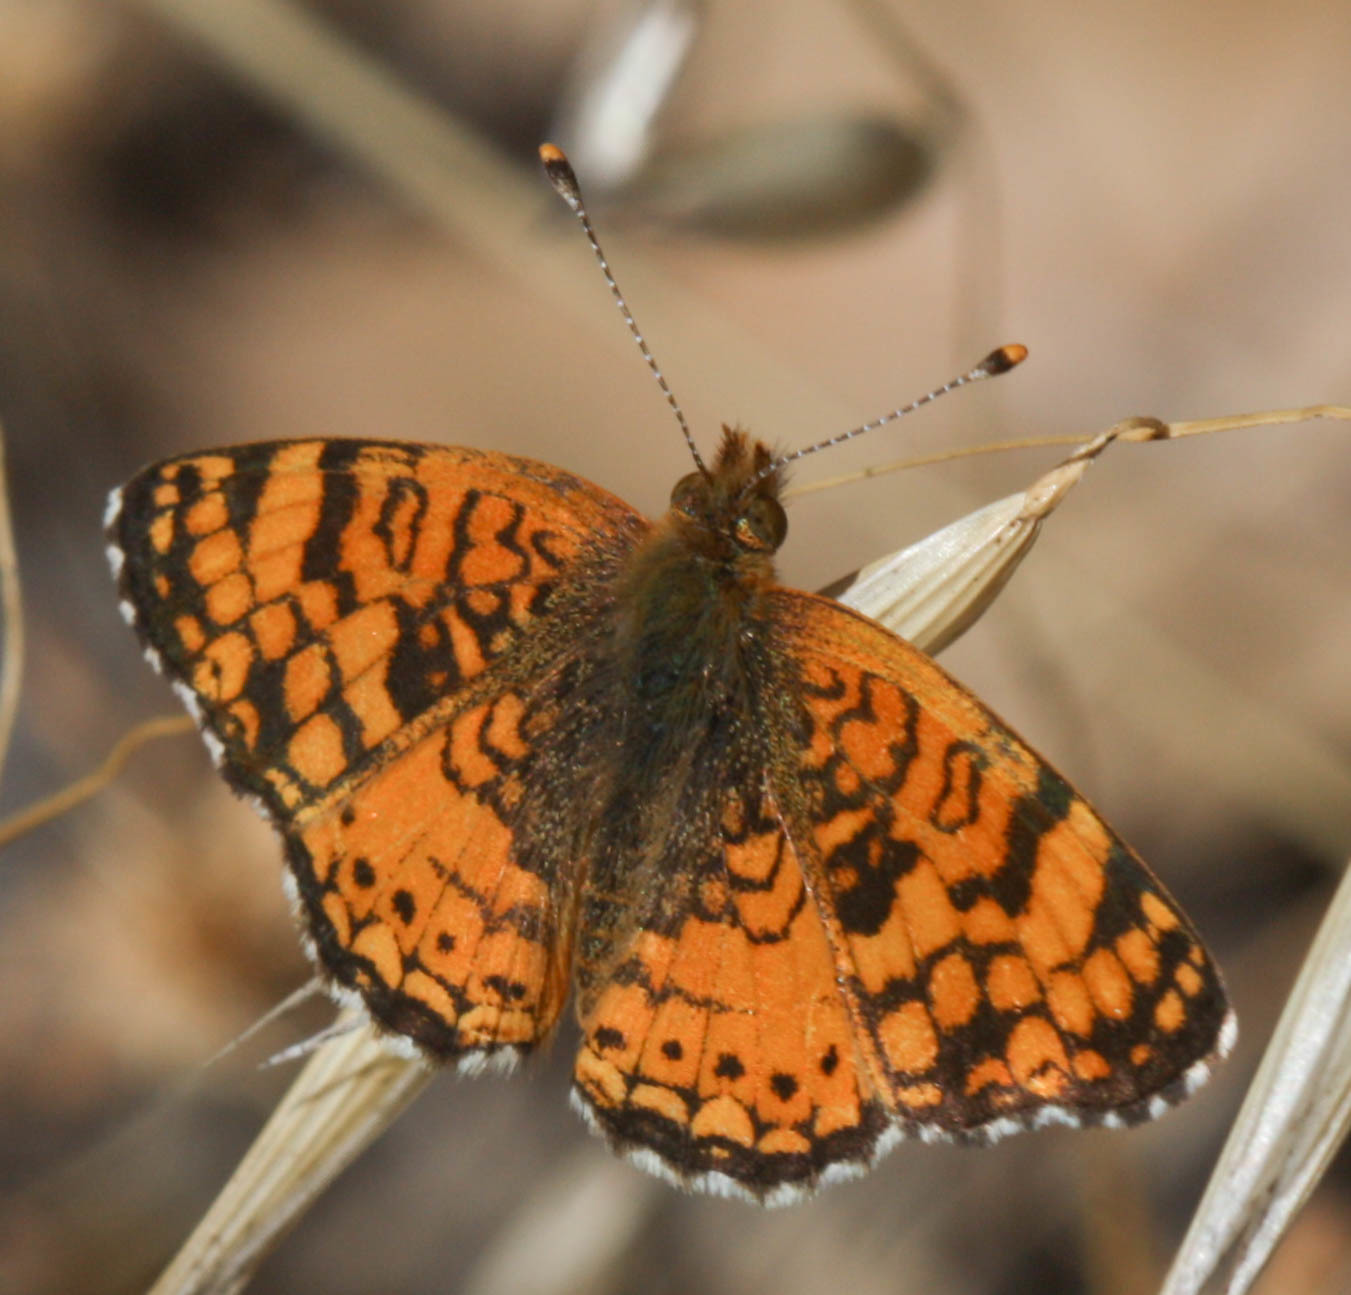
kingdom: Animalia
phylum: Arthropoda
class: Insecta
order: Lepidoptera
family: Nymphalidae
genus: Eresia
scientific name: Eresia aveyrona
